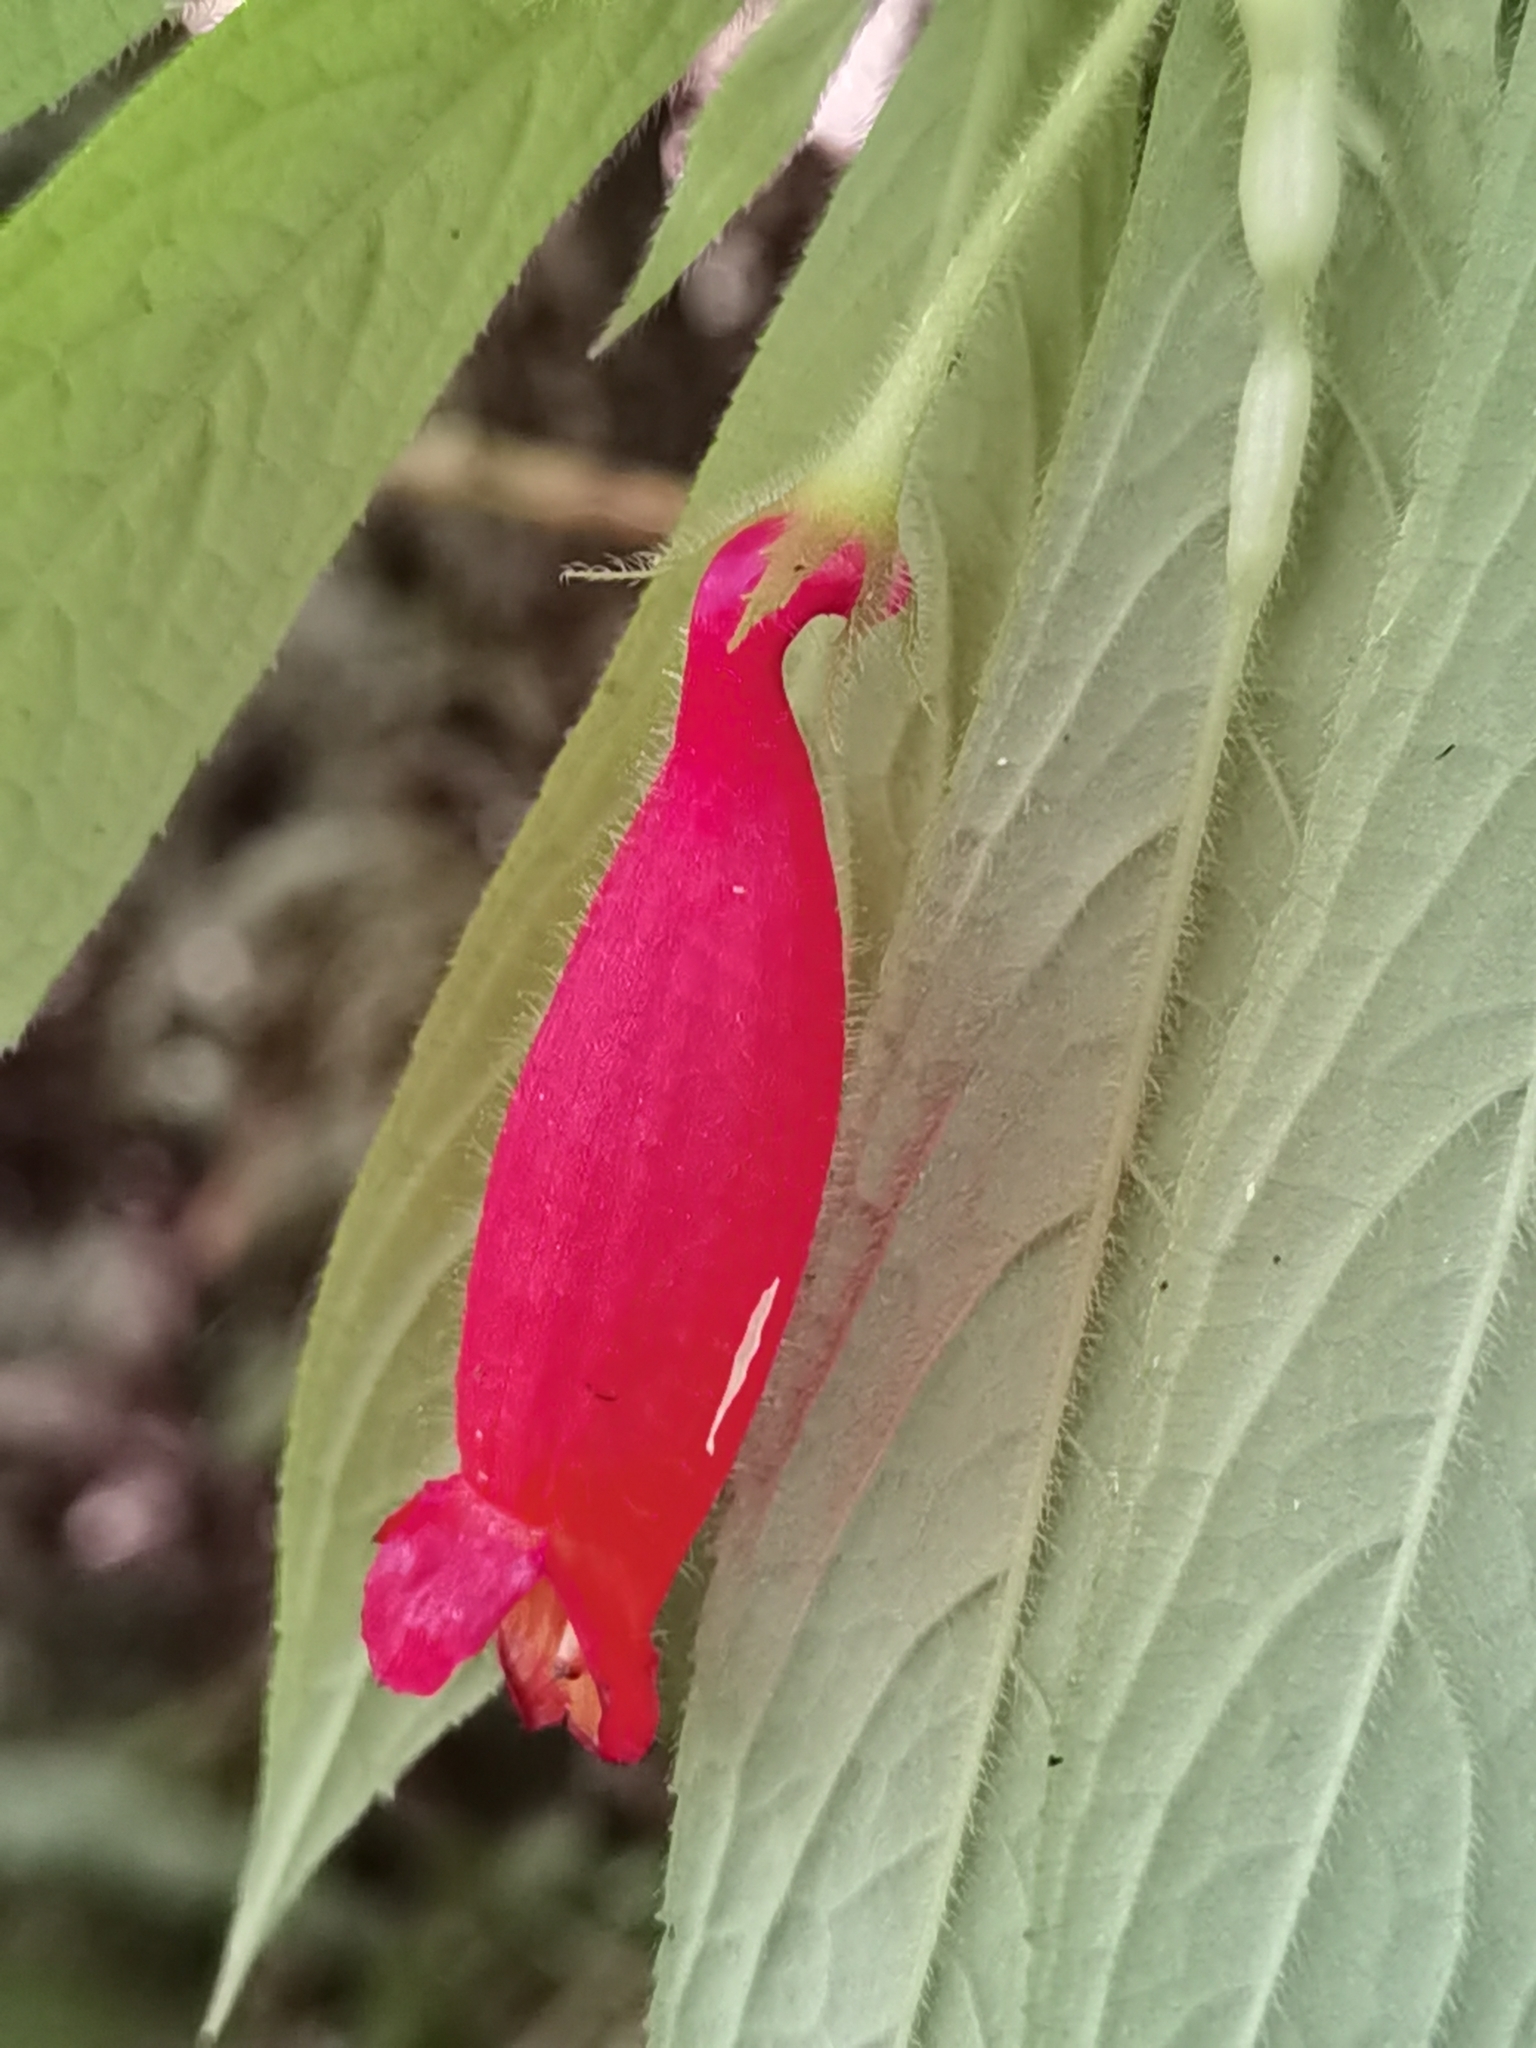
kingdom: Plantae
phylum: Tracheophyta
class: Magnoliopsida
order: Lamiales
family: Gesneriaceae
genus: Columnea
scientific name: Columnea anisophylla
